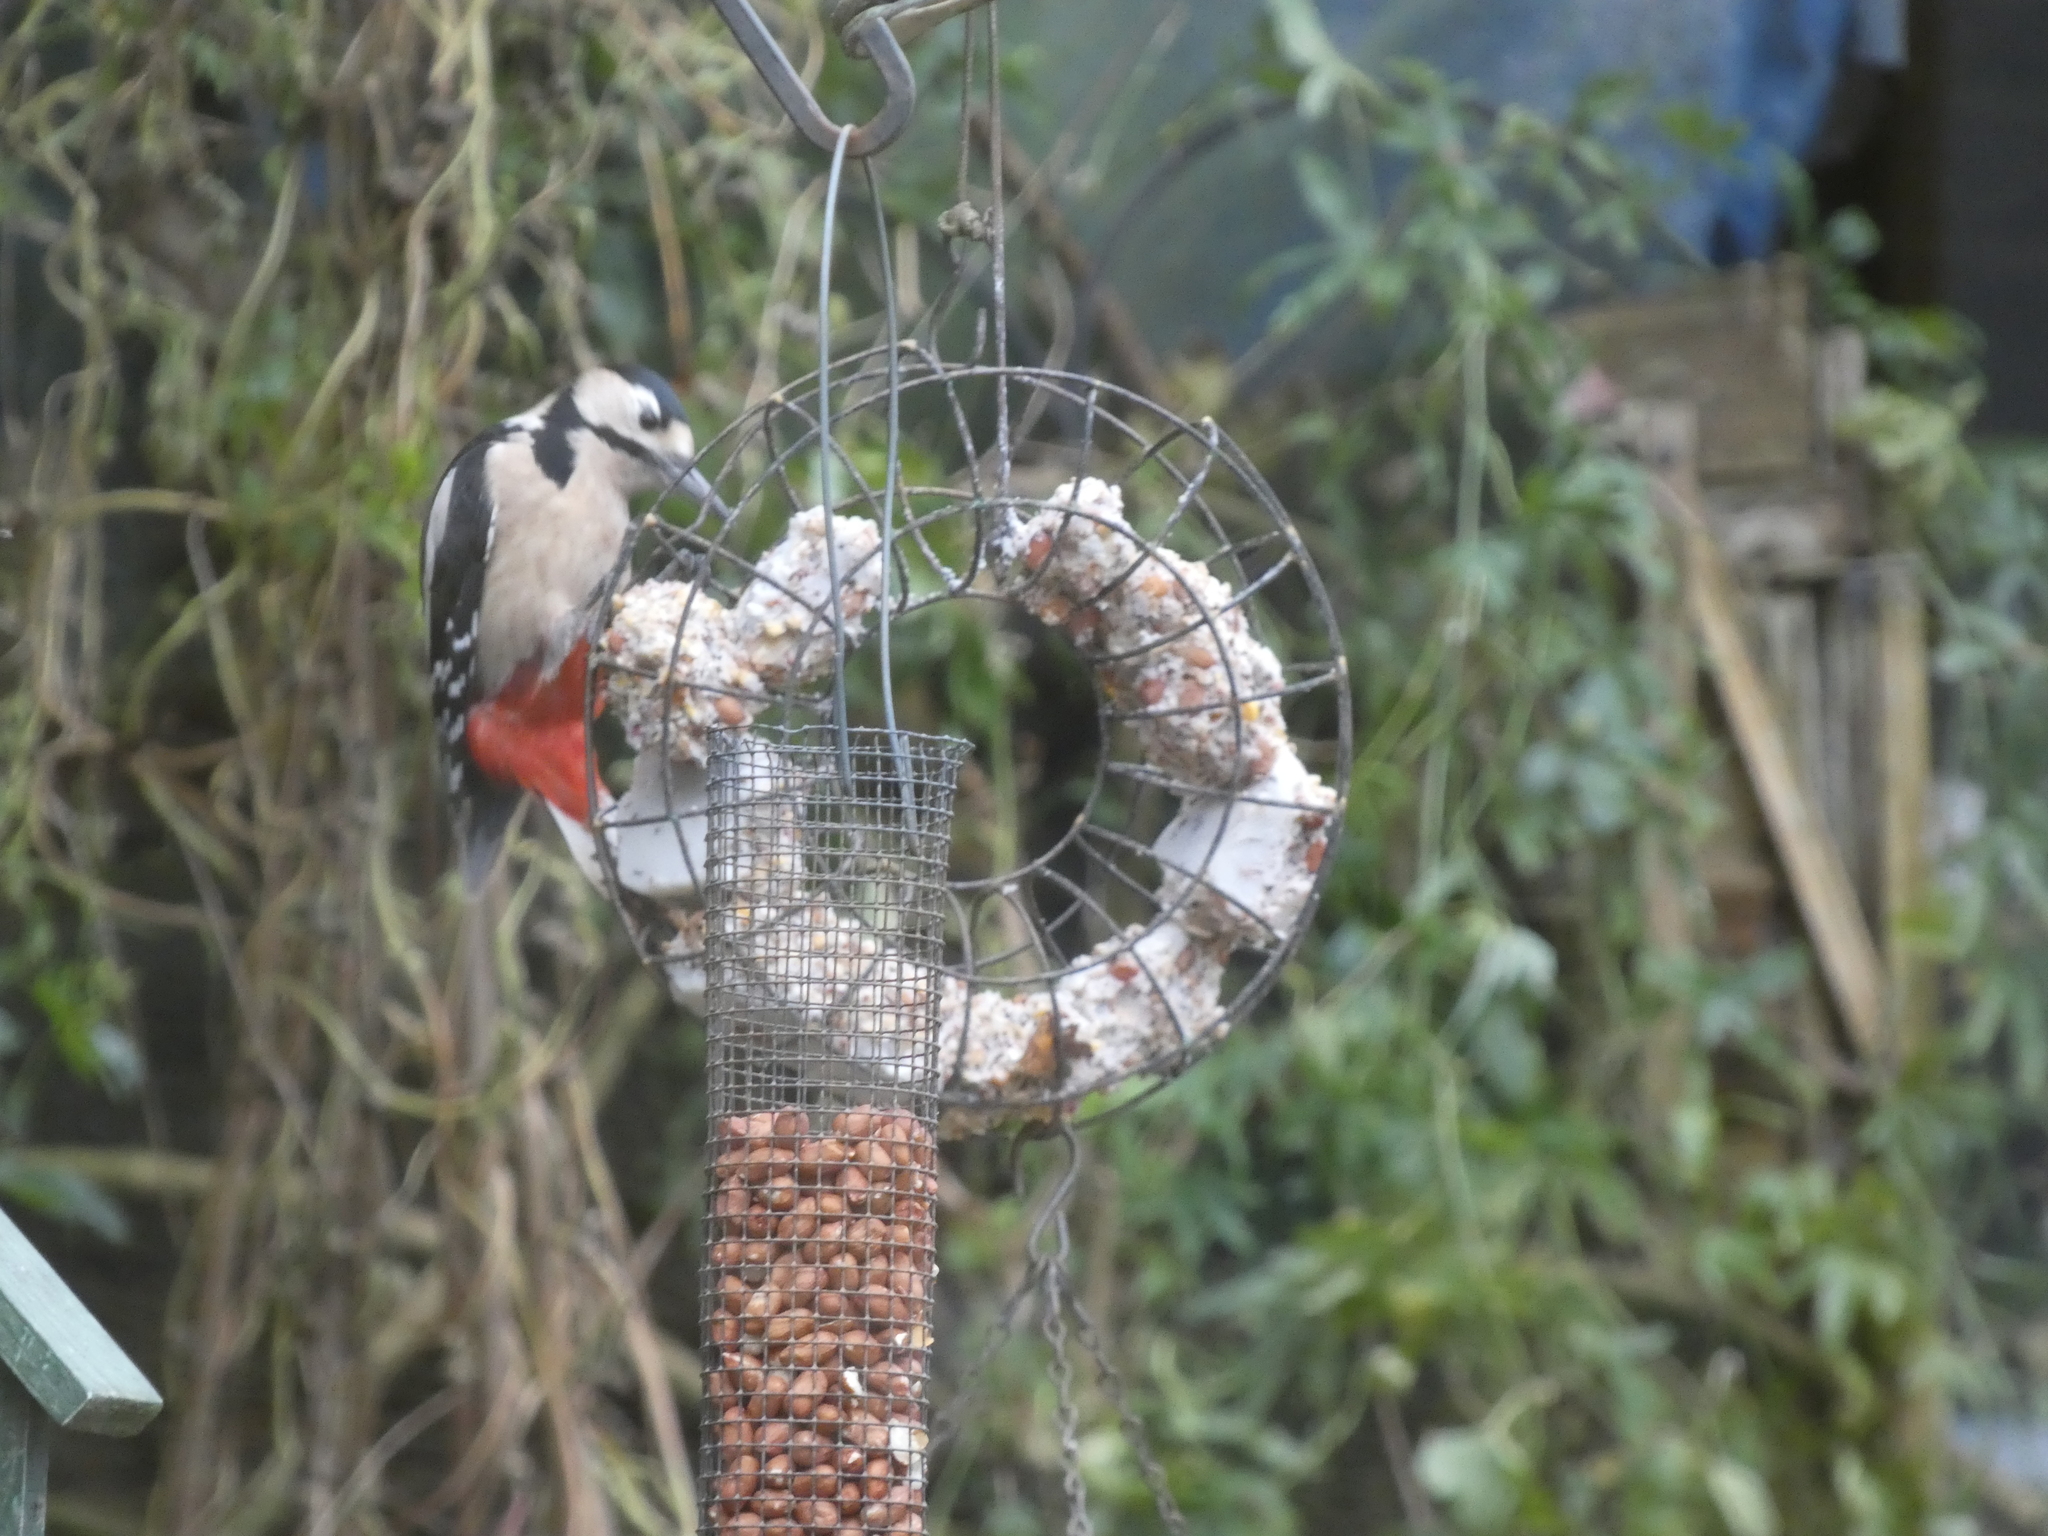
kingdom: Animalia
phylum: Chordata
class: Aves
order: Piciformes
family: Picidae
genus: Dendrocopos
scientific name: Dendrocopos major
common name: Great spotted woodpecker
